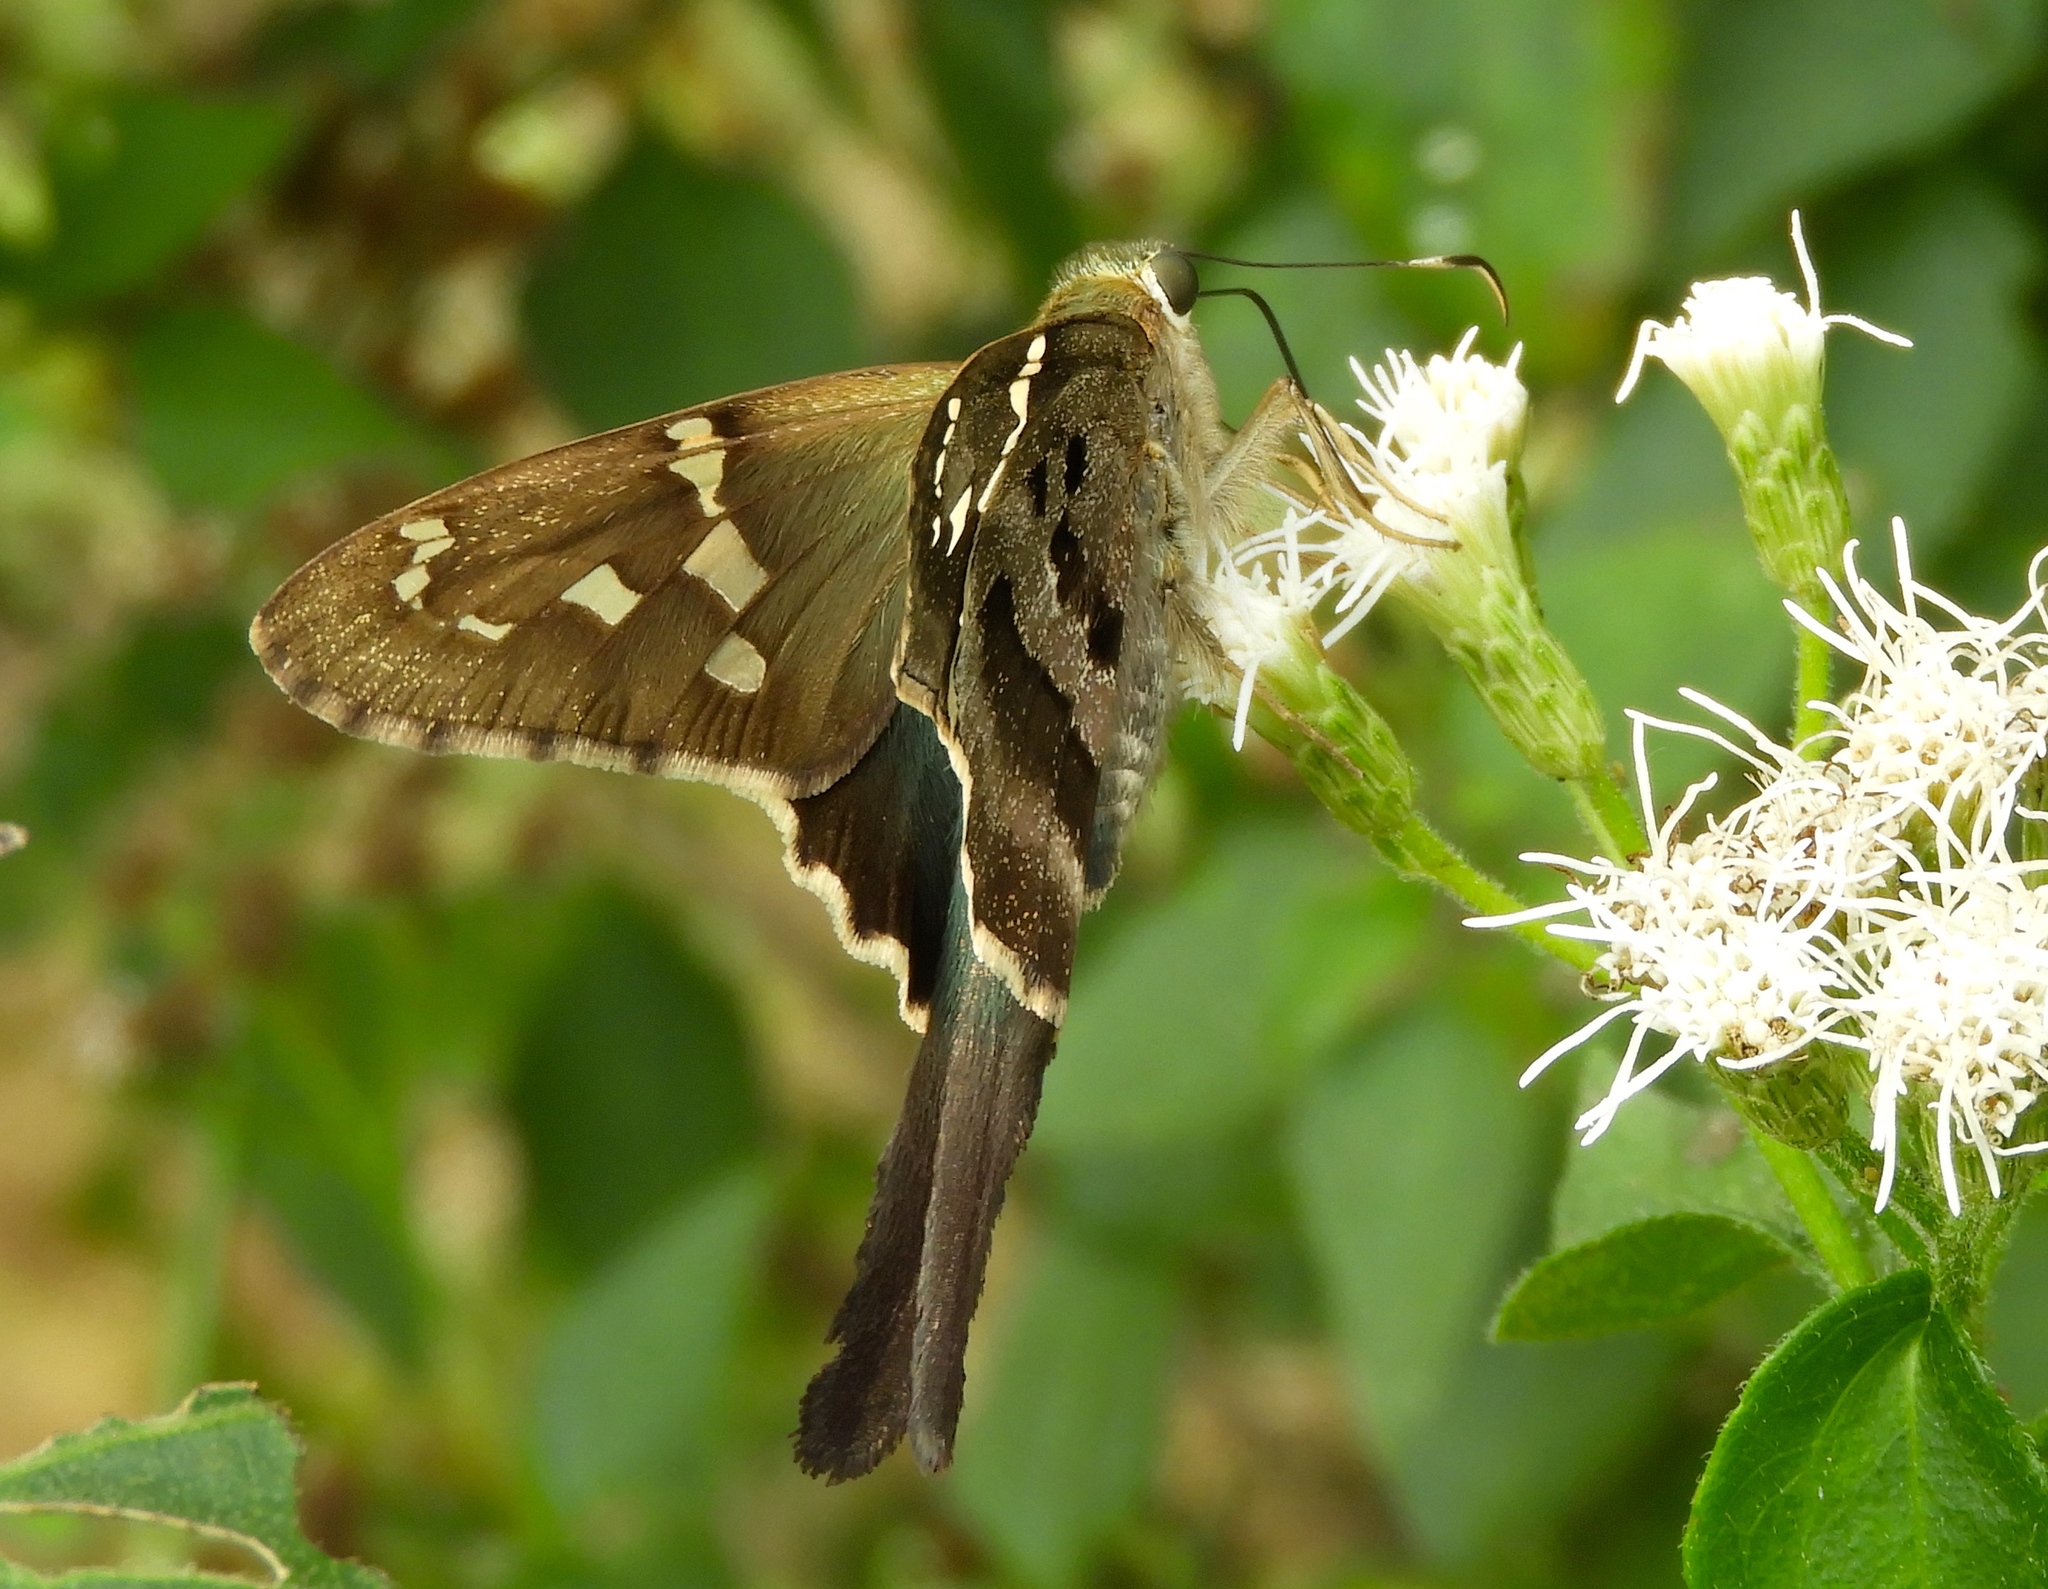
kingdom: Animalia
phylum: Arthropoda
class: Insecta
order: Lepidoptera
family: Hesperiidae
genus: Urbanus
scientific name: Urbanus proteus
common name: Long-tailed skipper
